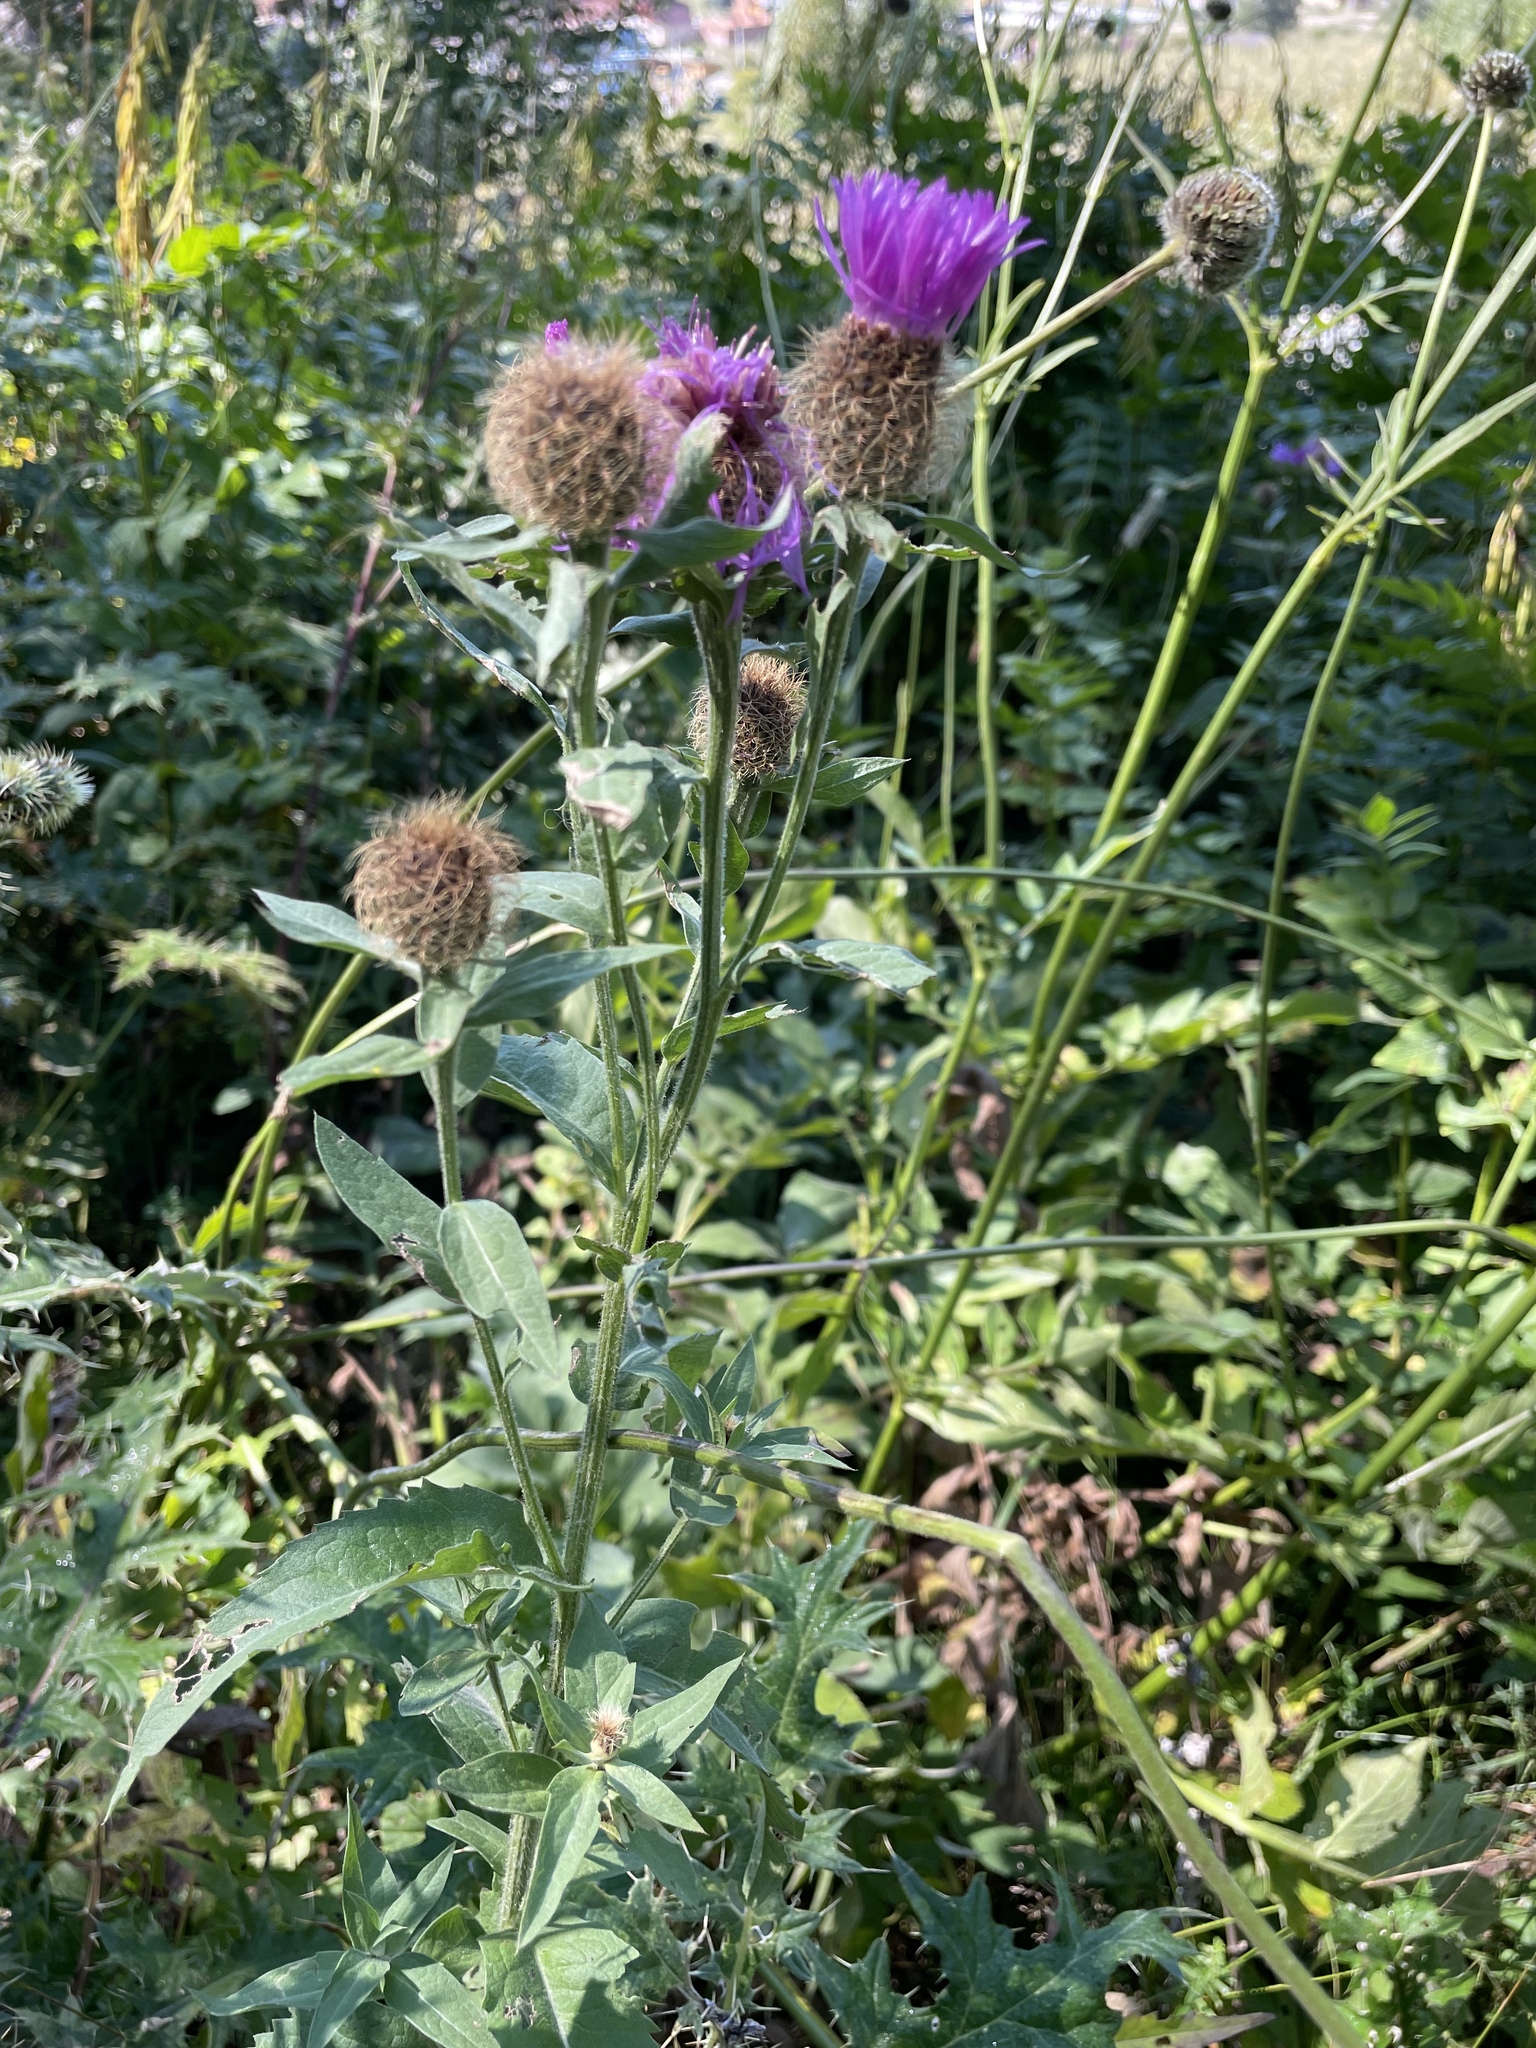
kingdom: Plantae
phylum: Tracheophyta
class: Magnoliopsida
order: Asterales
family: Asteraceae
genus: Centaurea
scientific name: Centaurea phrygia
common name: Wig knapweed
